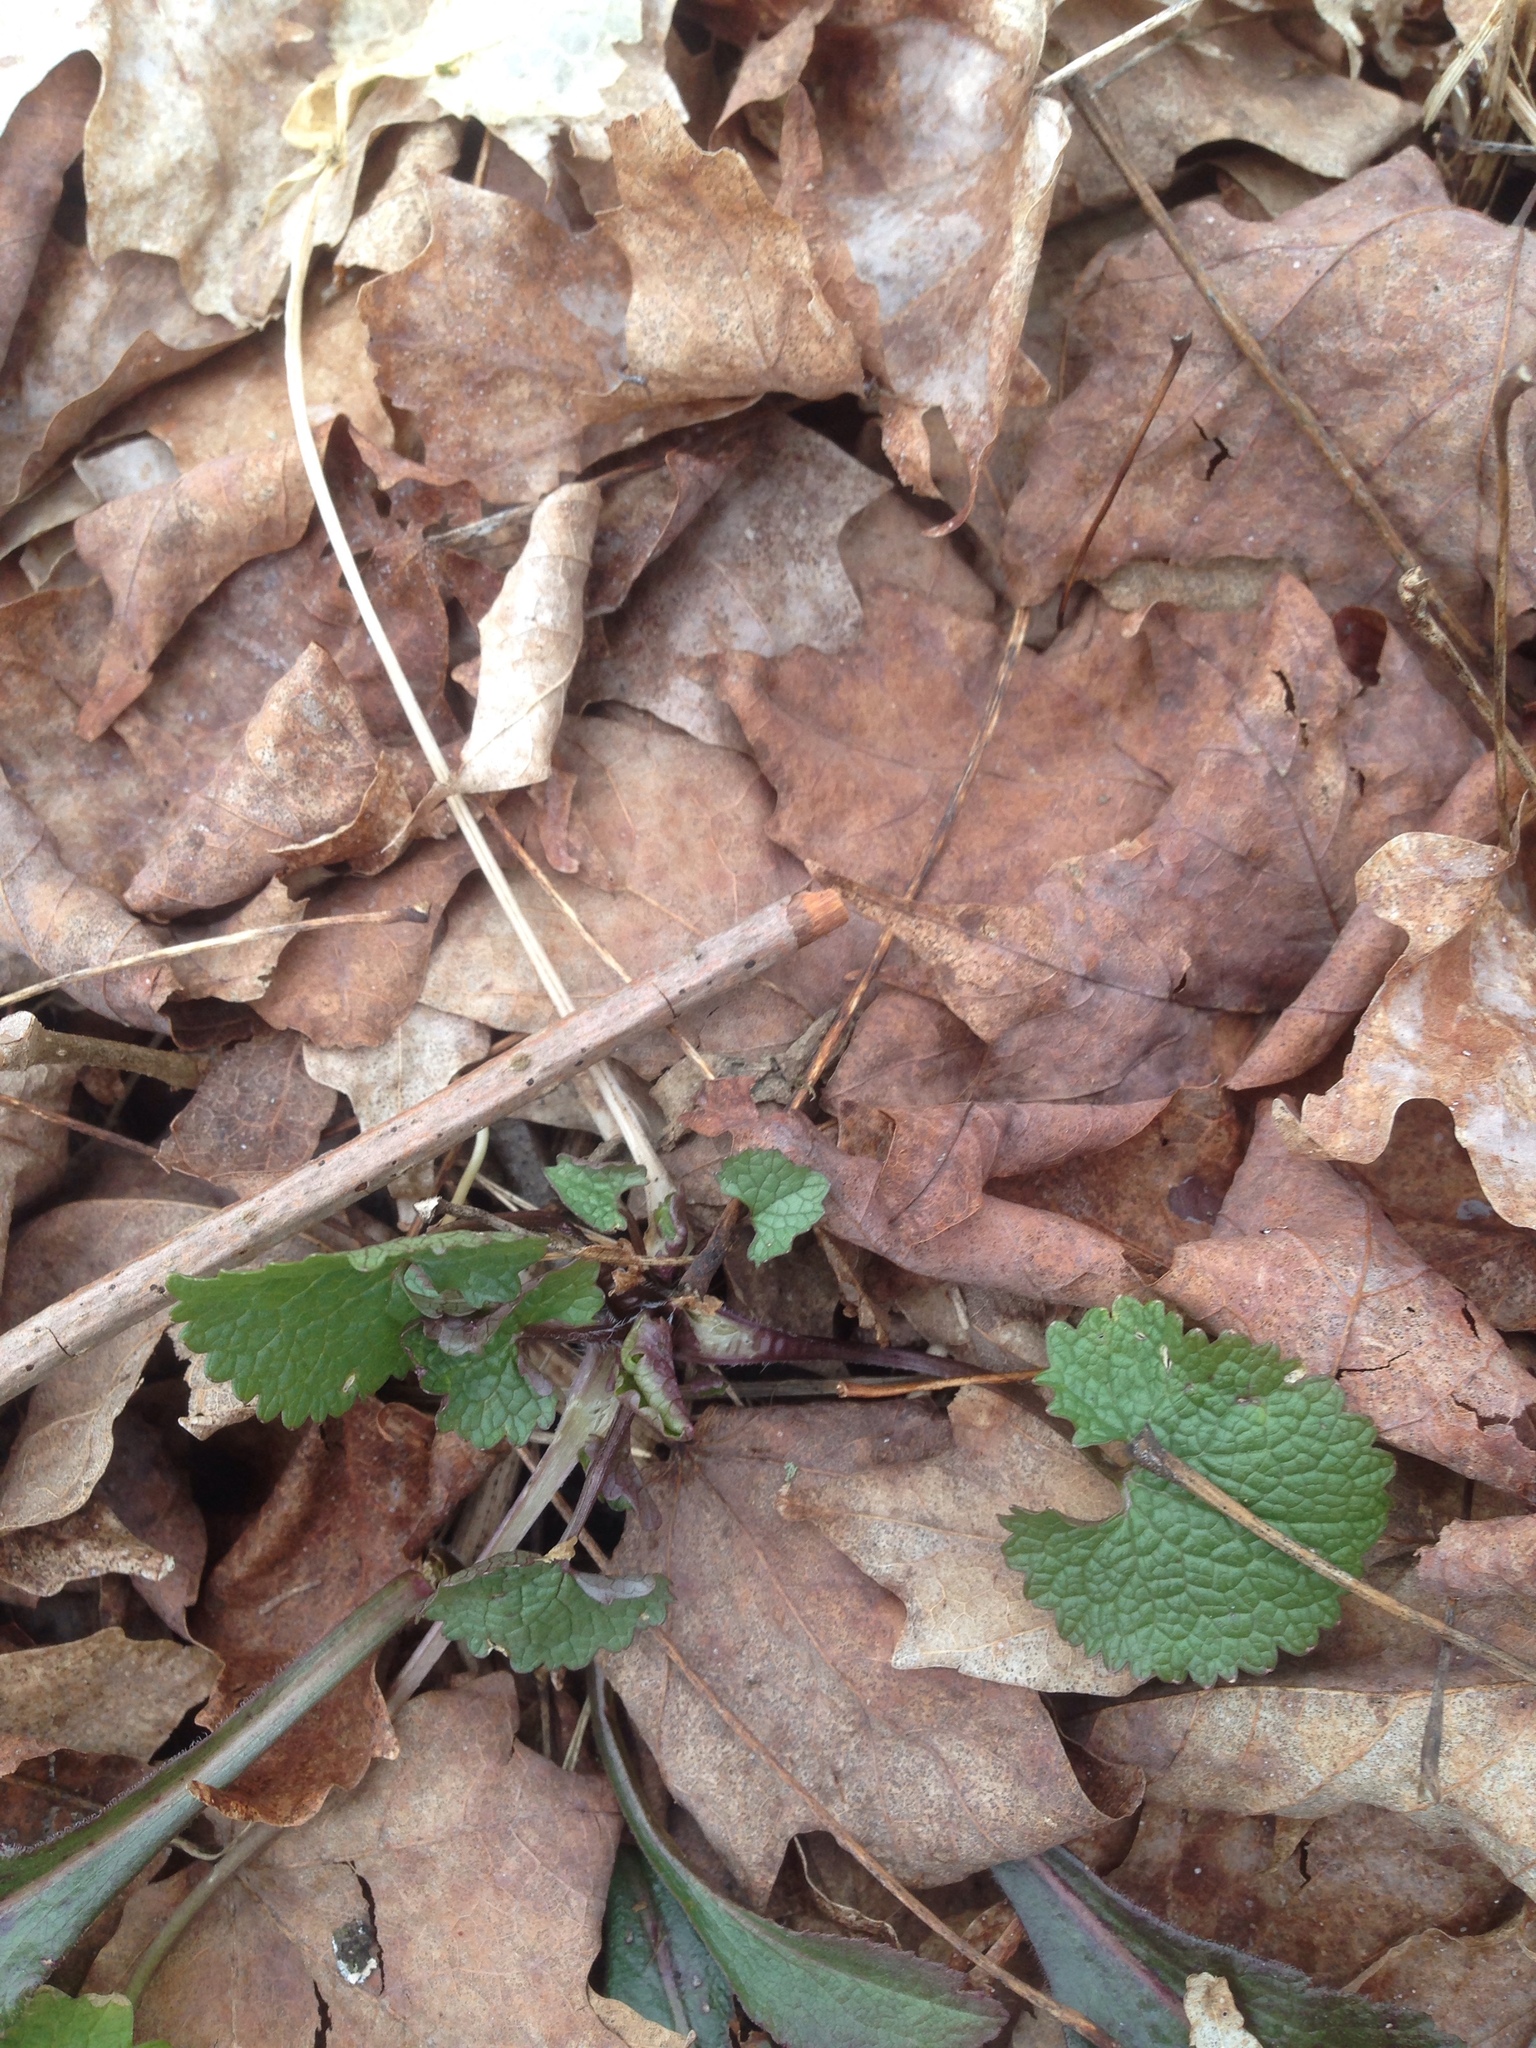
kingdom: Plantae
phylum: Tracheophyta
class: Magnoliopsida
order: Brassicales
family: Brassicaceae
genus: Alliaria
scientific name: Alliaria petiolata
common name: Garlic mustard
